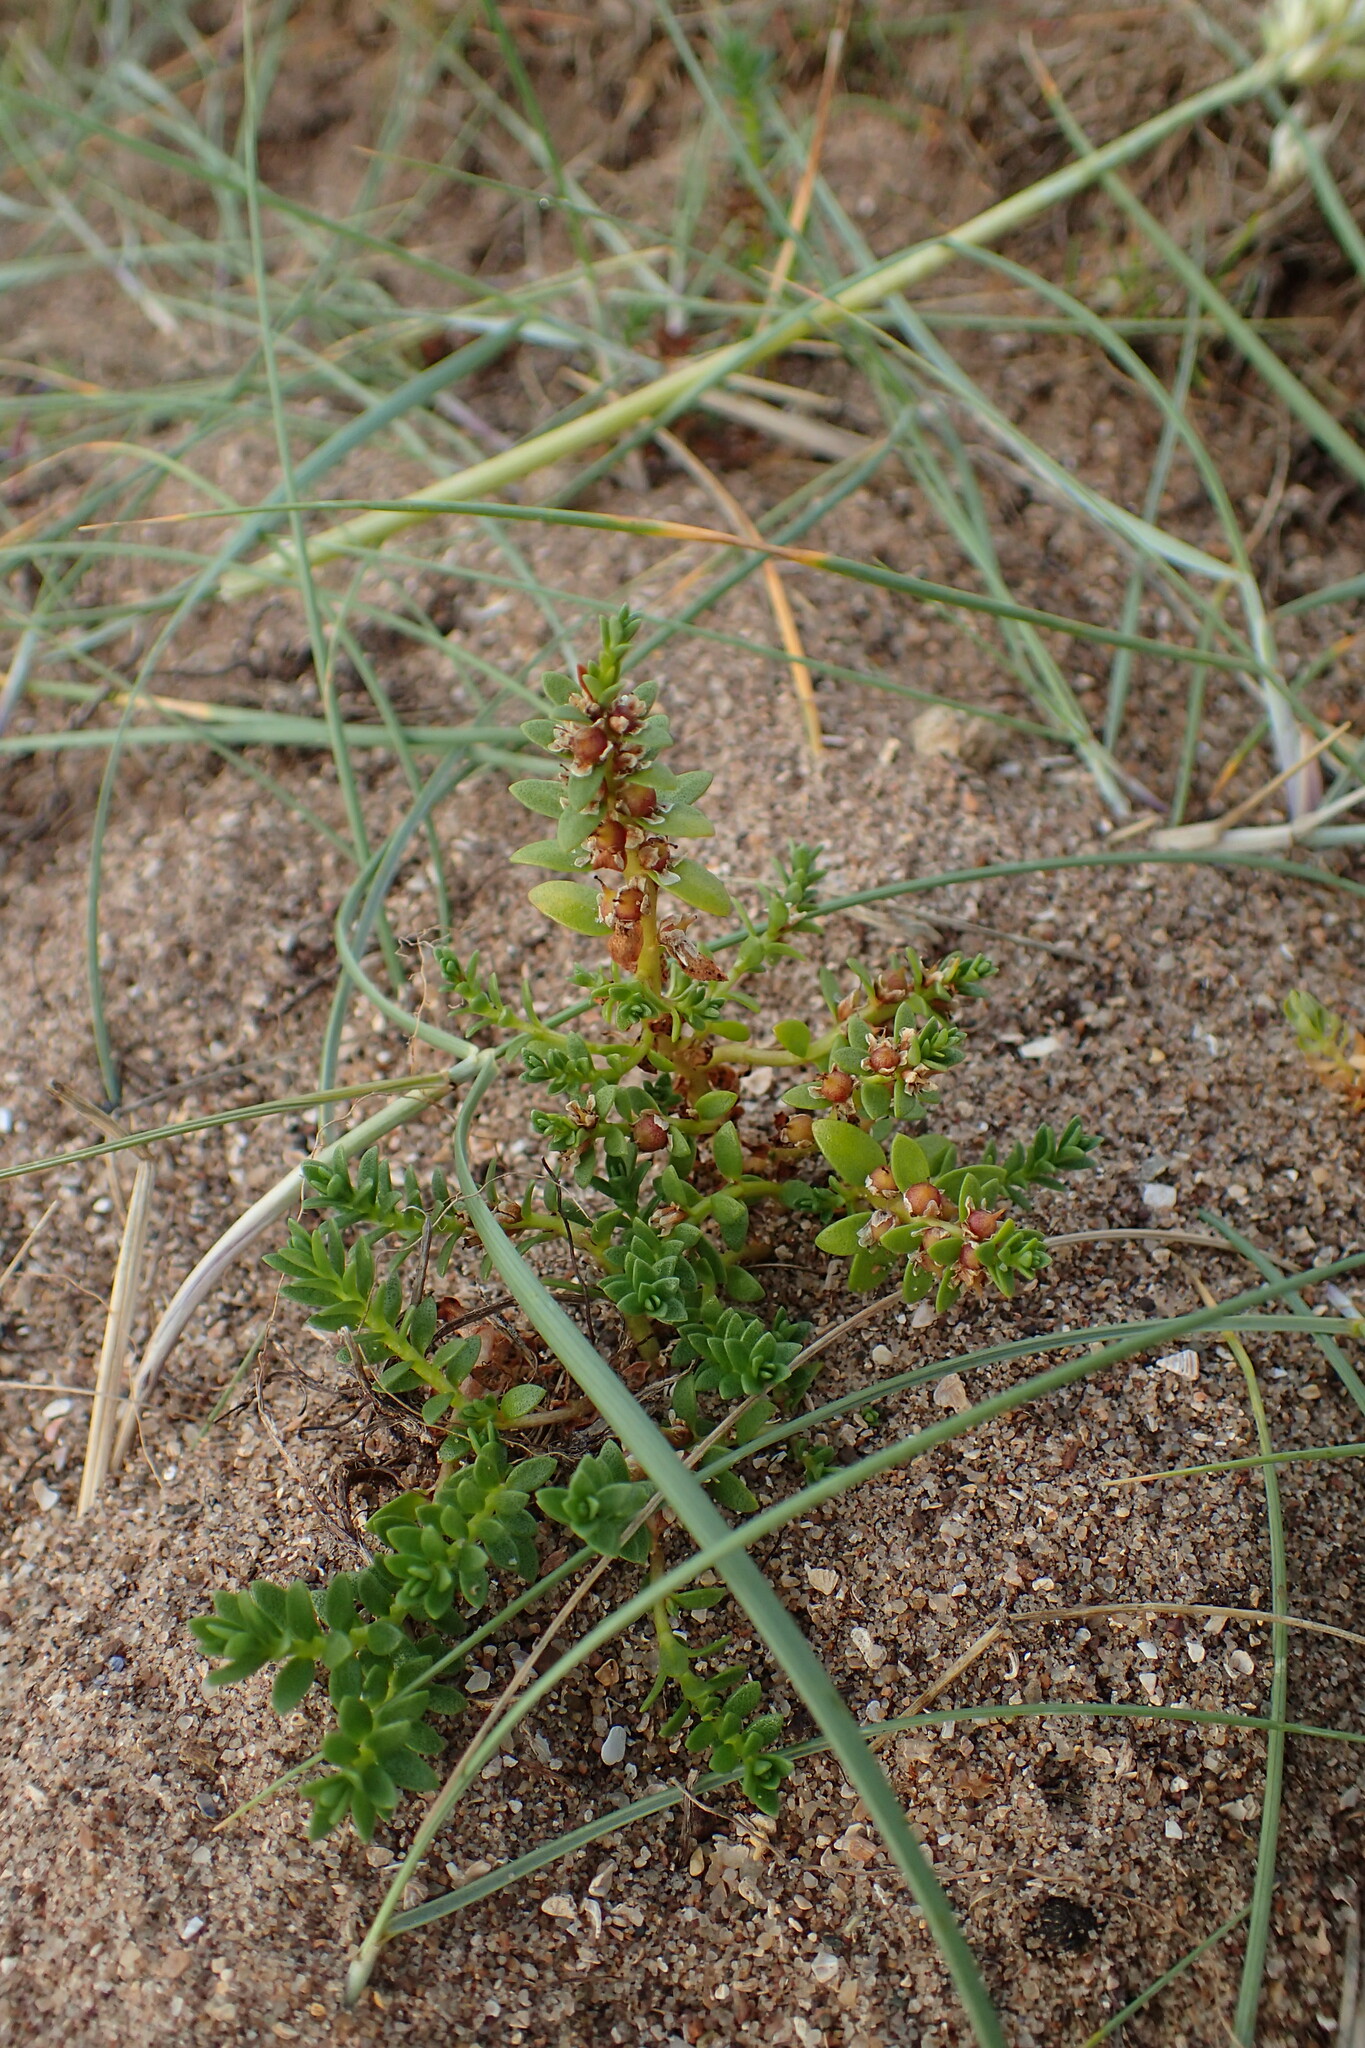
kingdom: Plantae
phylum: Tracheophyta
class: Magnoliopsida
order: Ericales
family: Primulaceae
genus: Lysimachia
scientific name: Lysimachia maritima
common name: Sea milkwort
